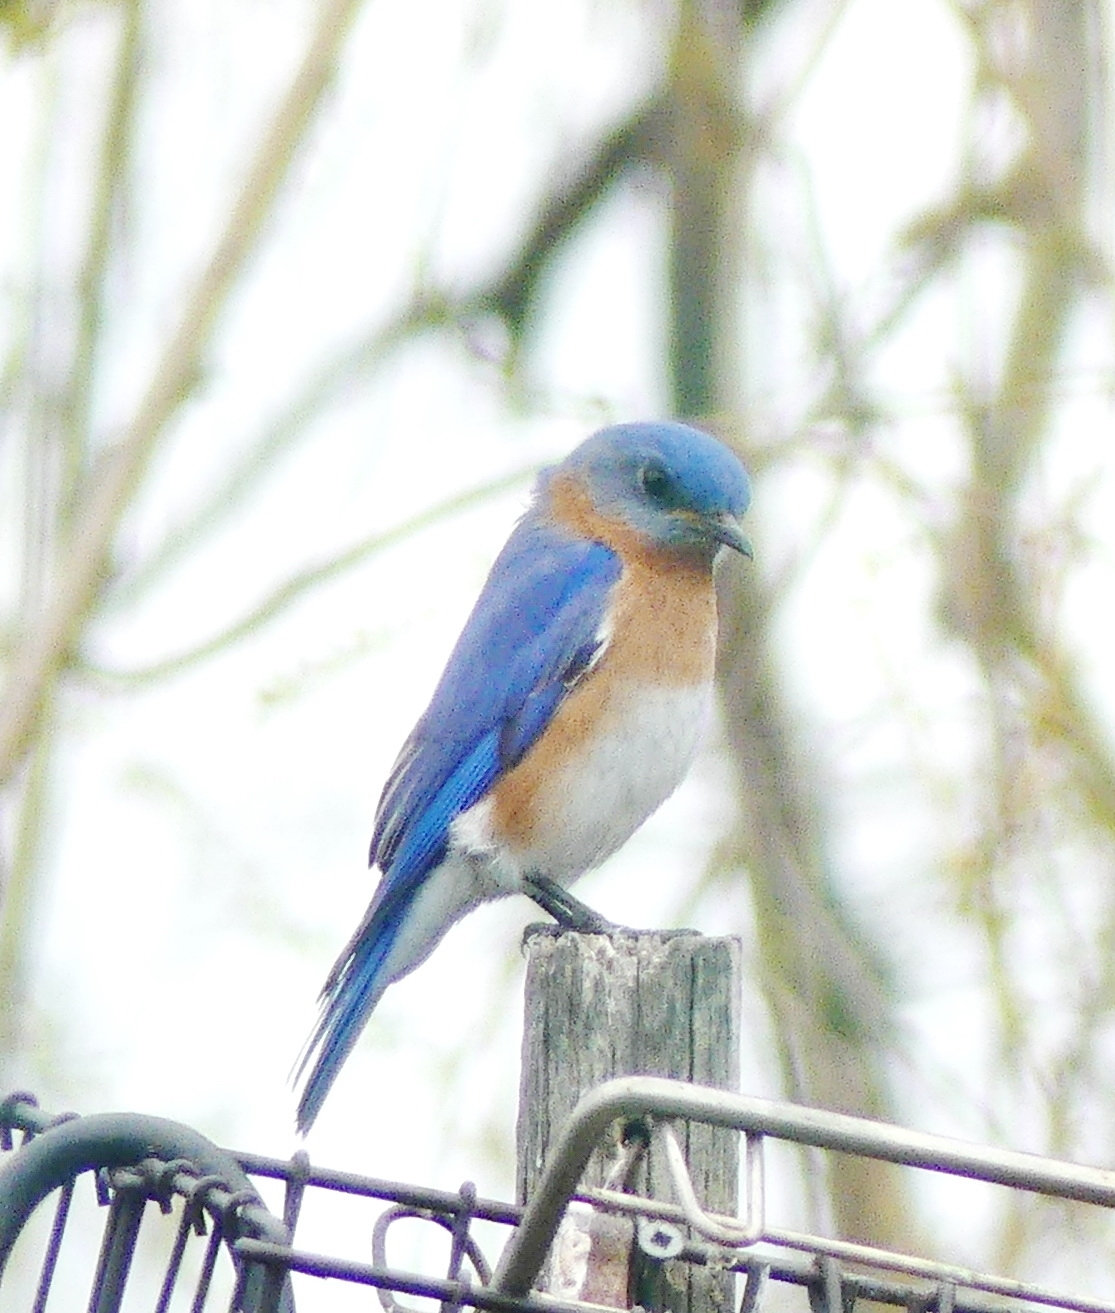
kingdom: Animalia
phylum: Chordata
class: Aves
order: Passeriformes
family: Turdidae
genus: Sialia
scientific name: Sialia sialis
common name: Eastern bluebird
